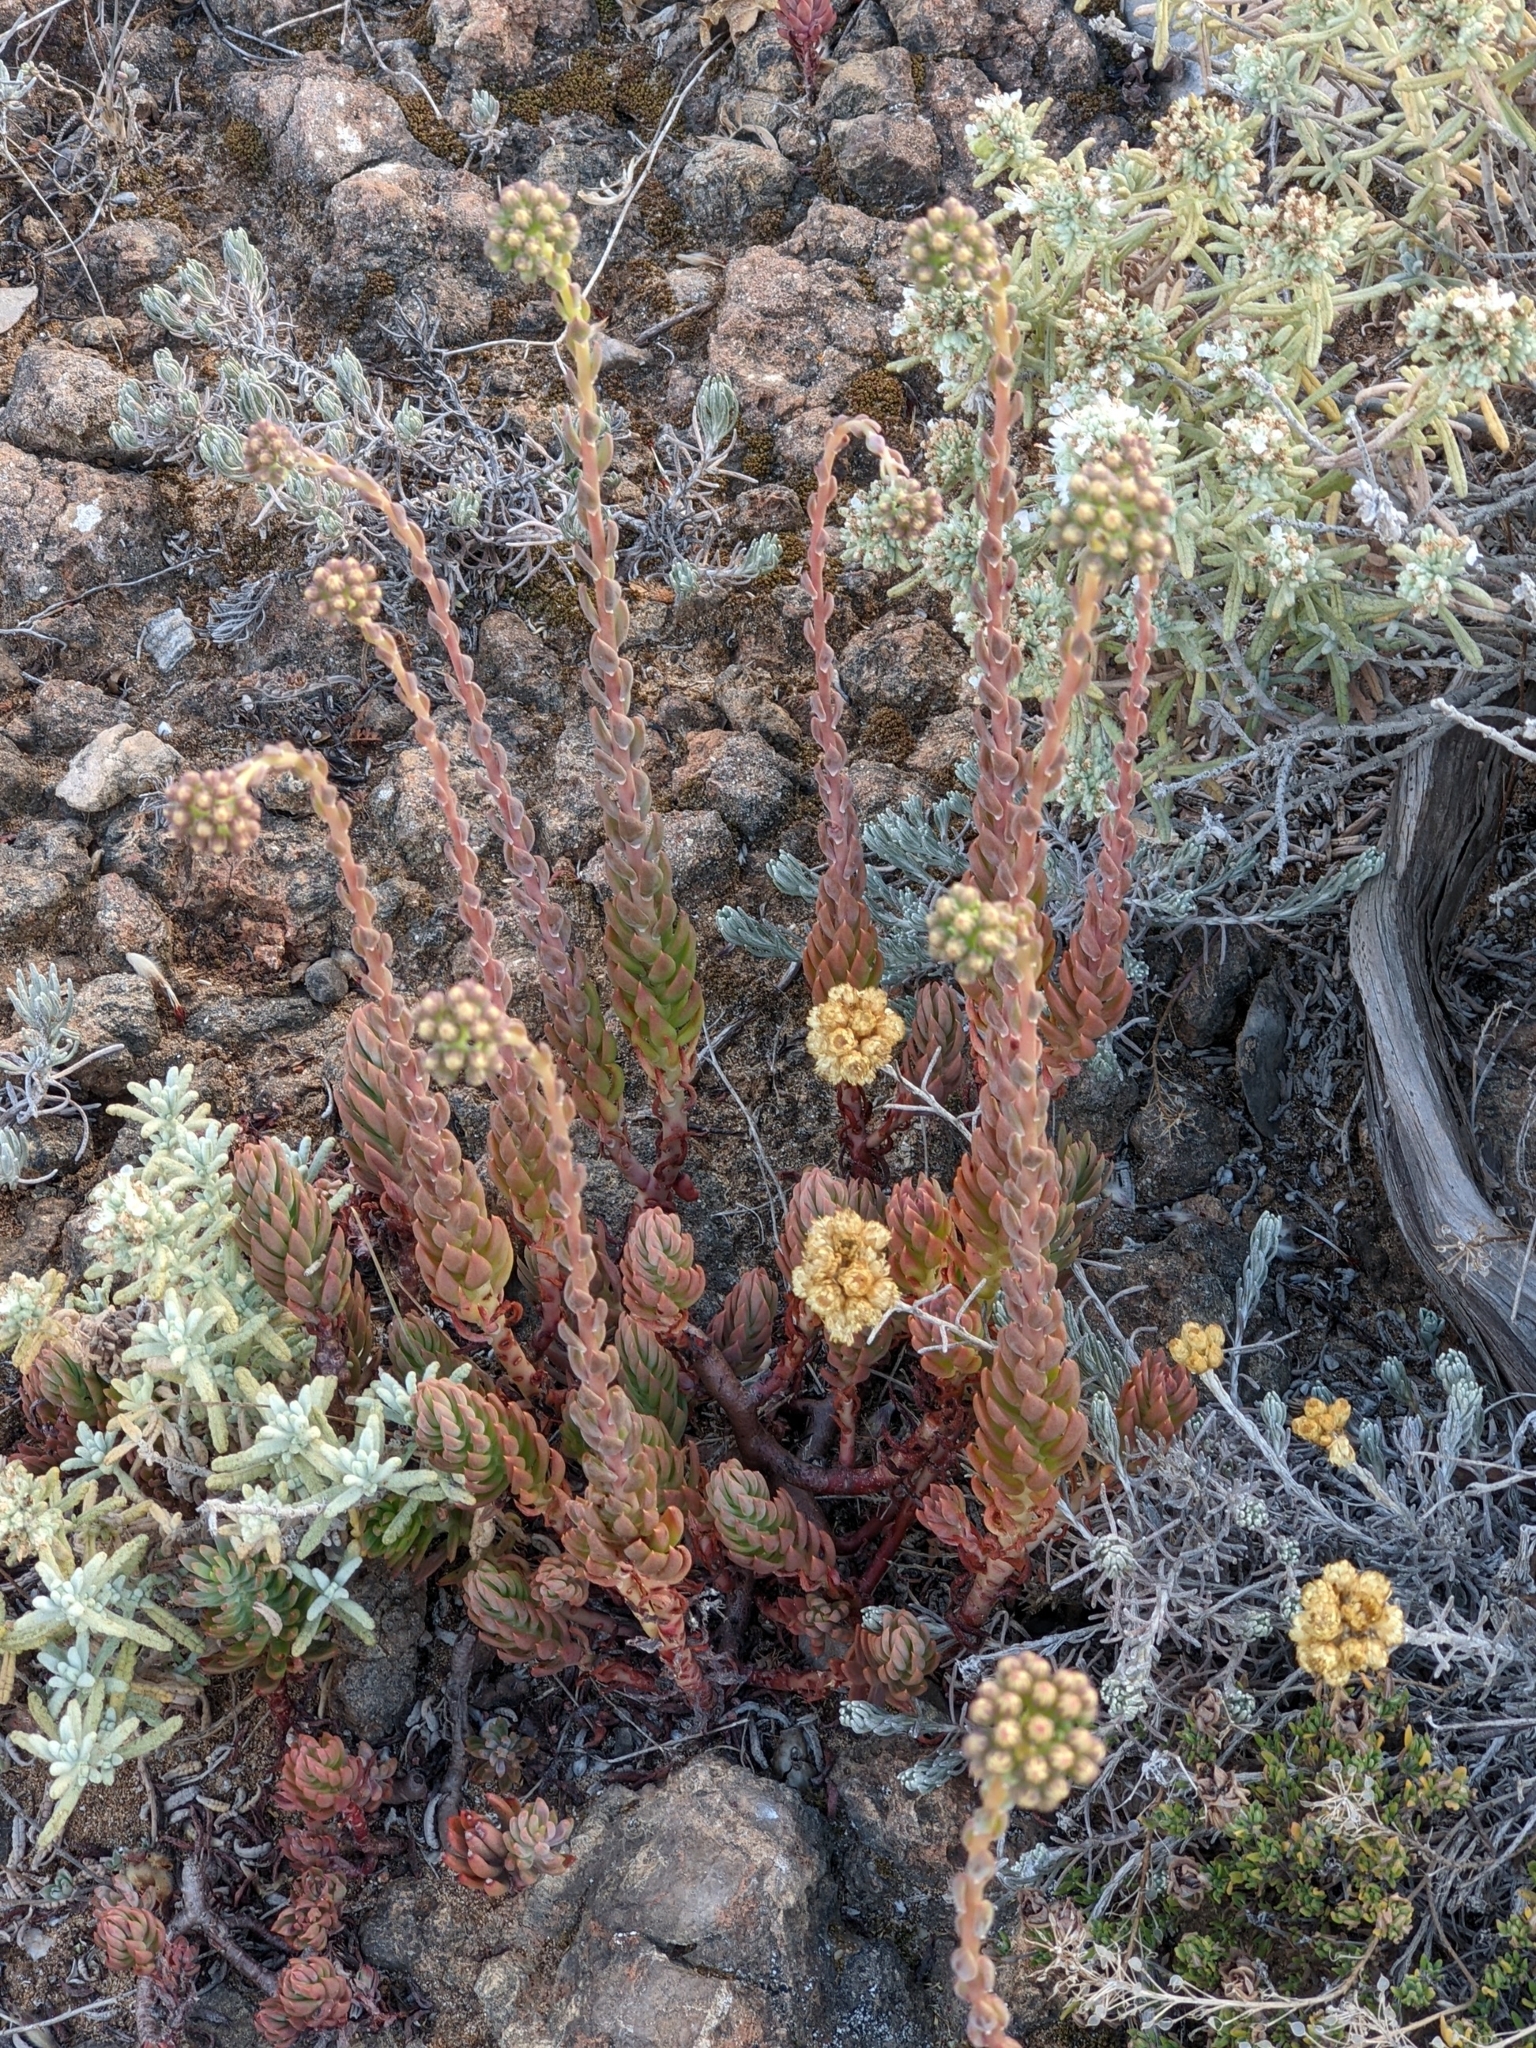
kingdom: Plantae
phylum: Tracheophyta
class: Magnoliopsida
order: Saxifragales
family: Crassulaceae
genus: Petrosedum
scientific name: Petrosedum sediforme
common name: Pale stonecrop
